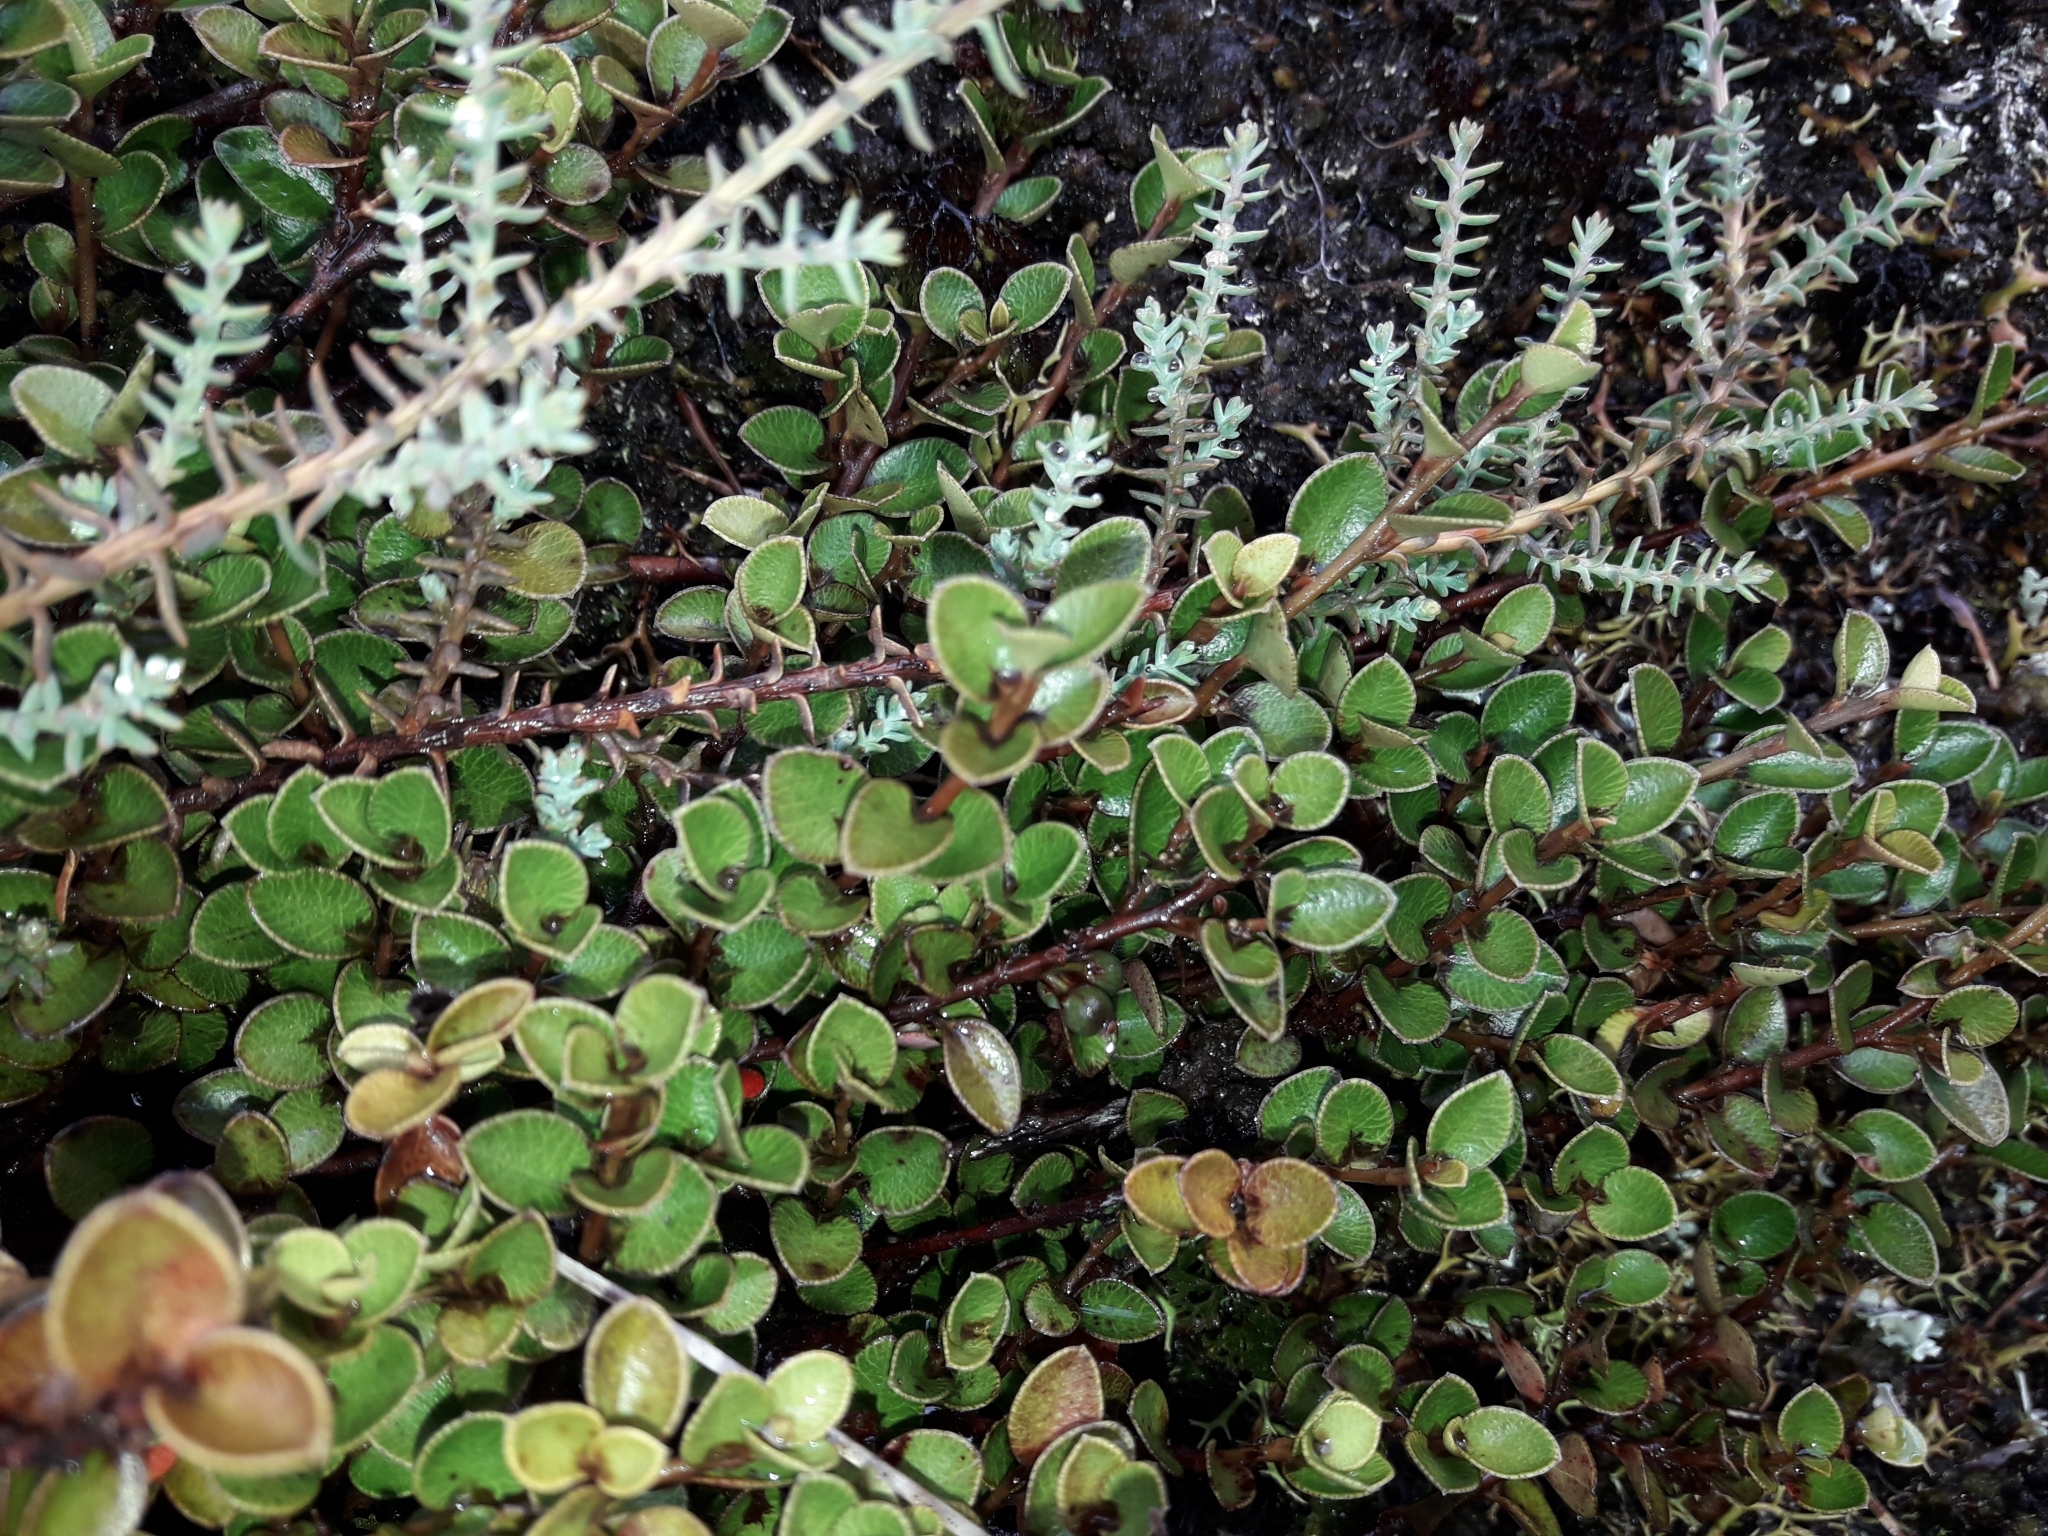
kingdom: Plantae
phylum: Tracheophyta
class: Magnoliopsida
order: Ericales
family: Primulaceae
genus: Myrsine
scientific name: Myrsine nummularia
